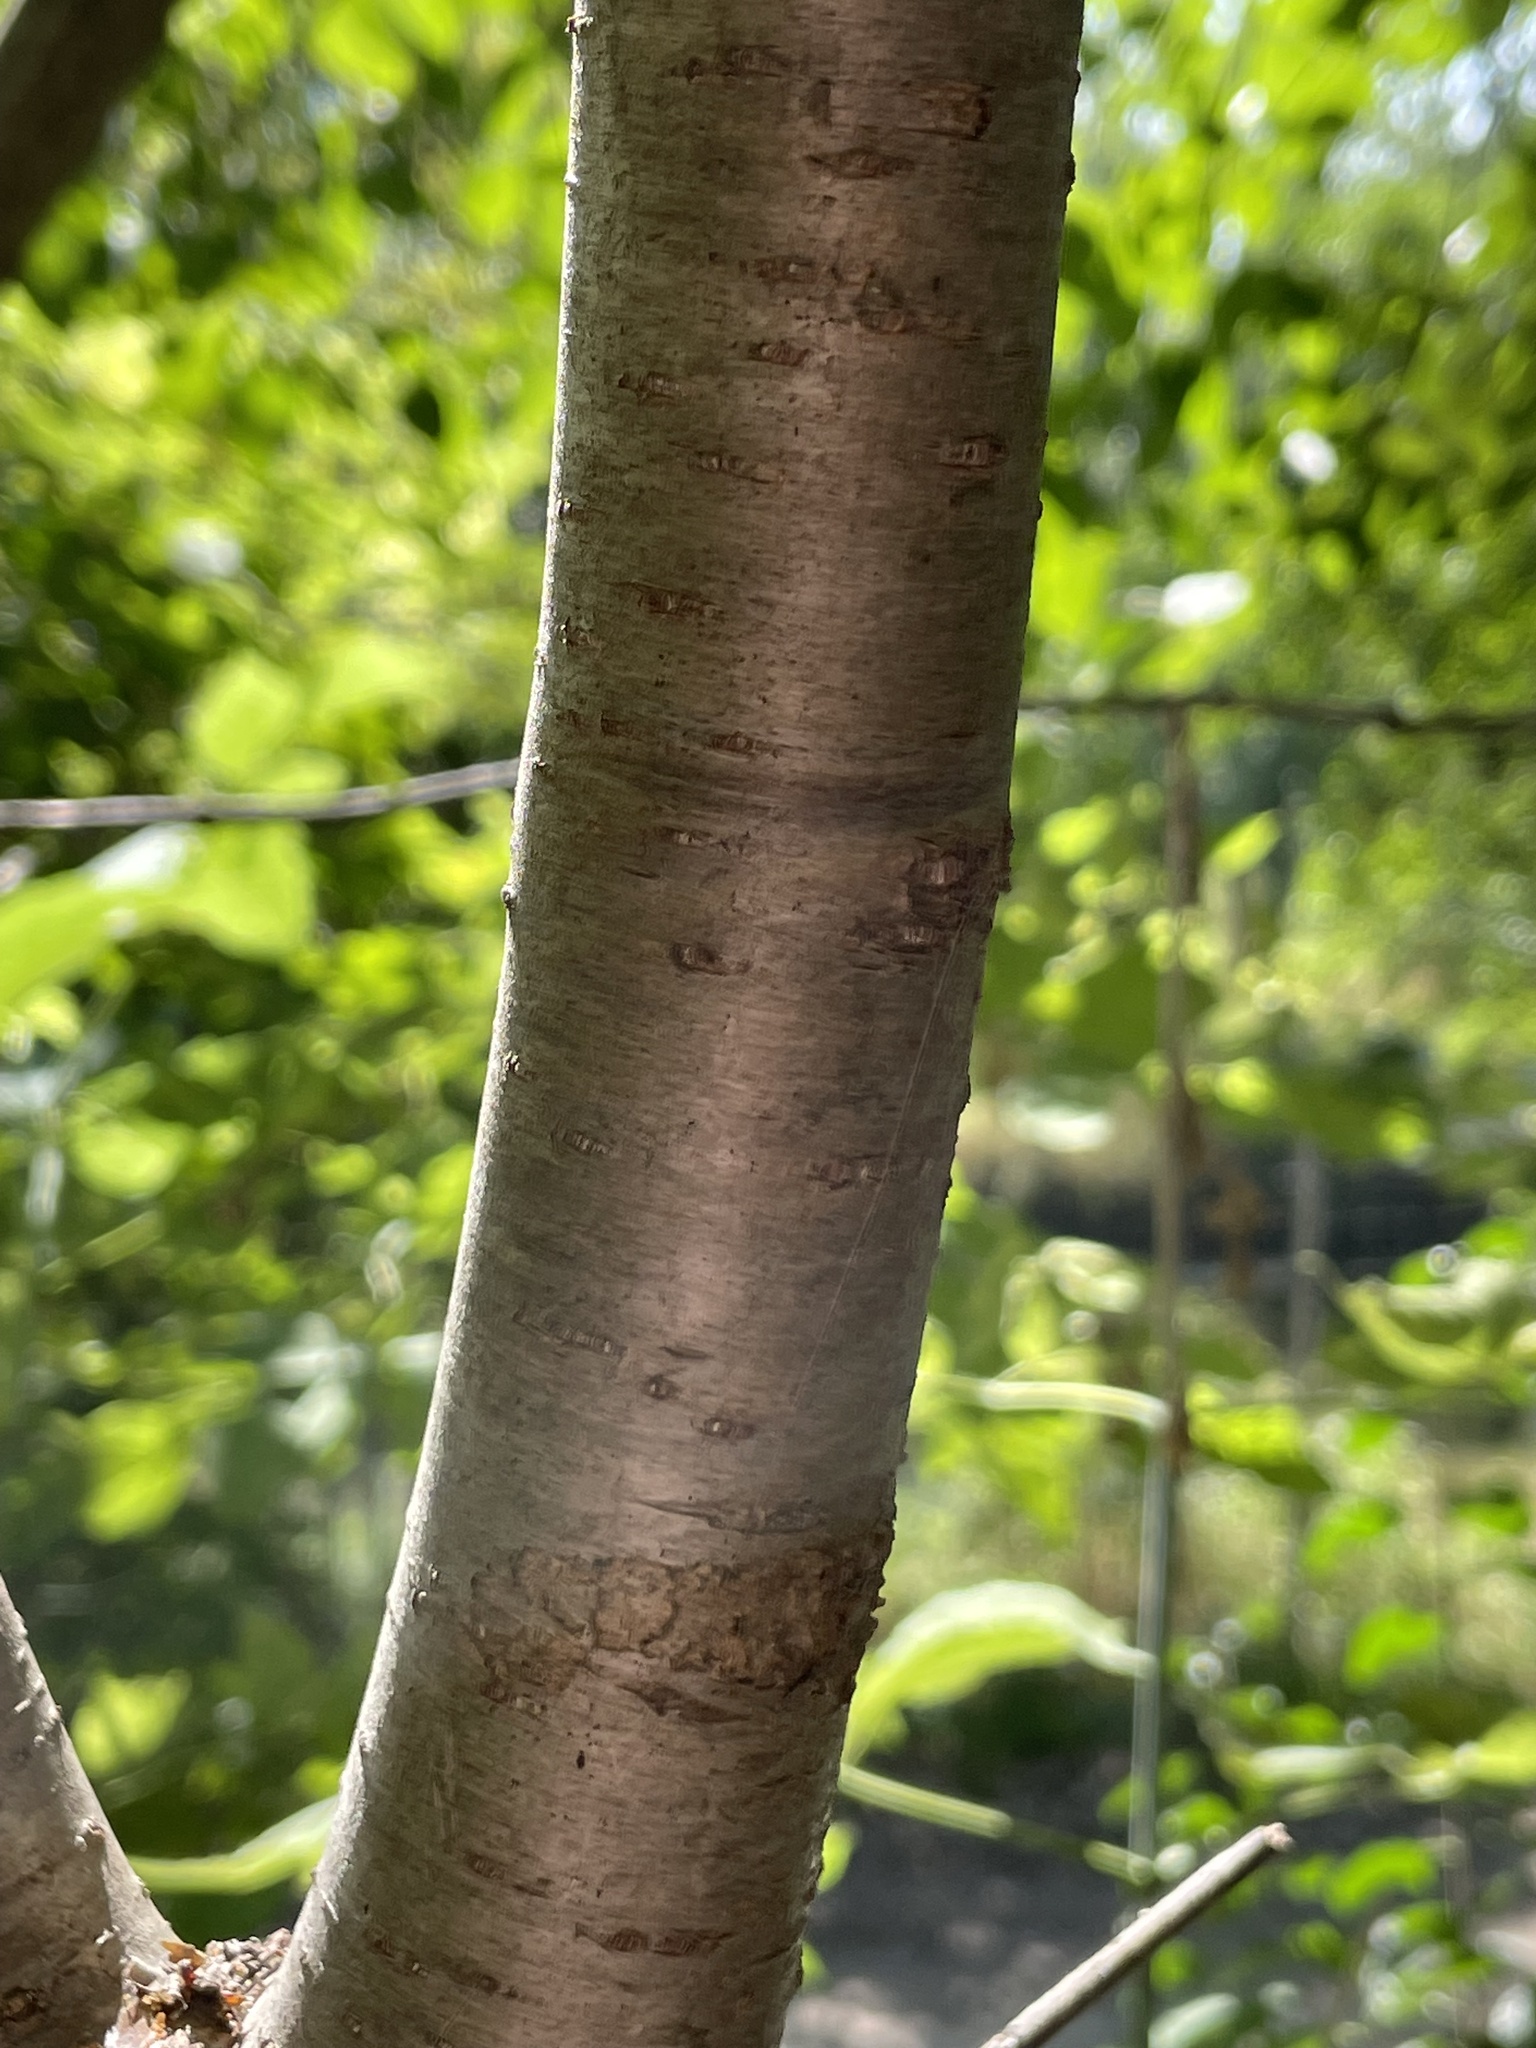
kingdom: Plantae
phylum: Tracheophyta
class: Magnoliopsida
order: Rosales
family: Rhamnaceae
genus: Rhamnus
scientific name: Rhamnus cathartica
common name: Common buckthorn
